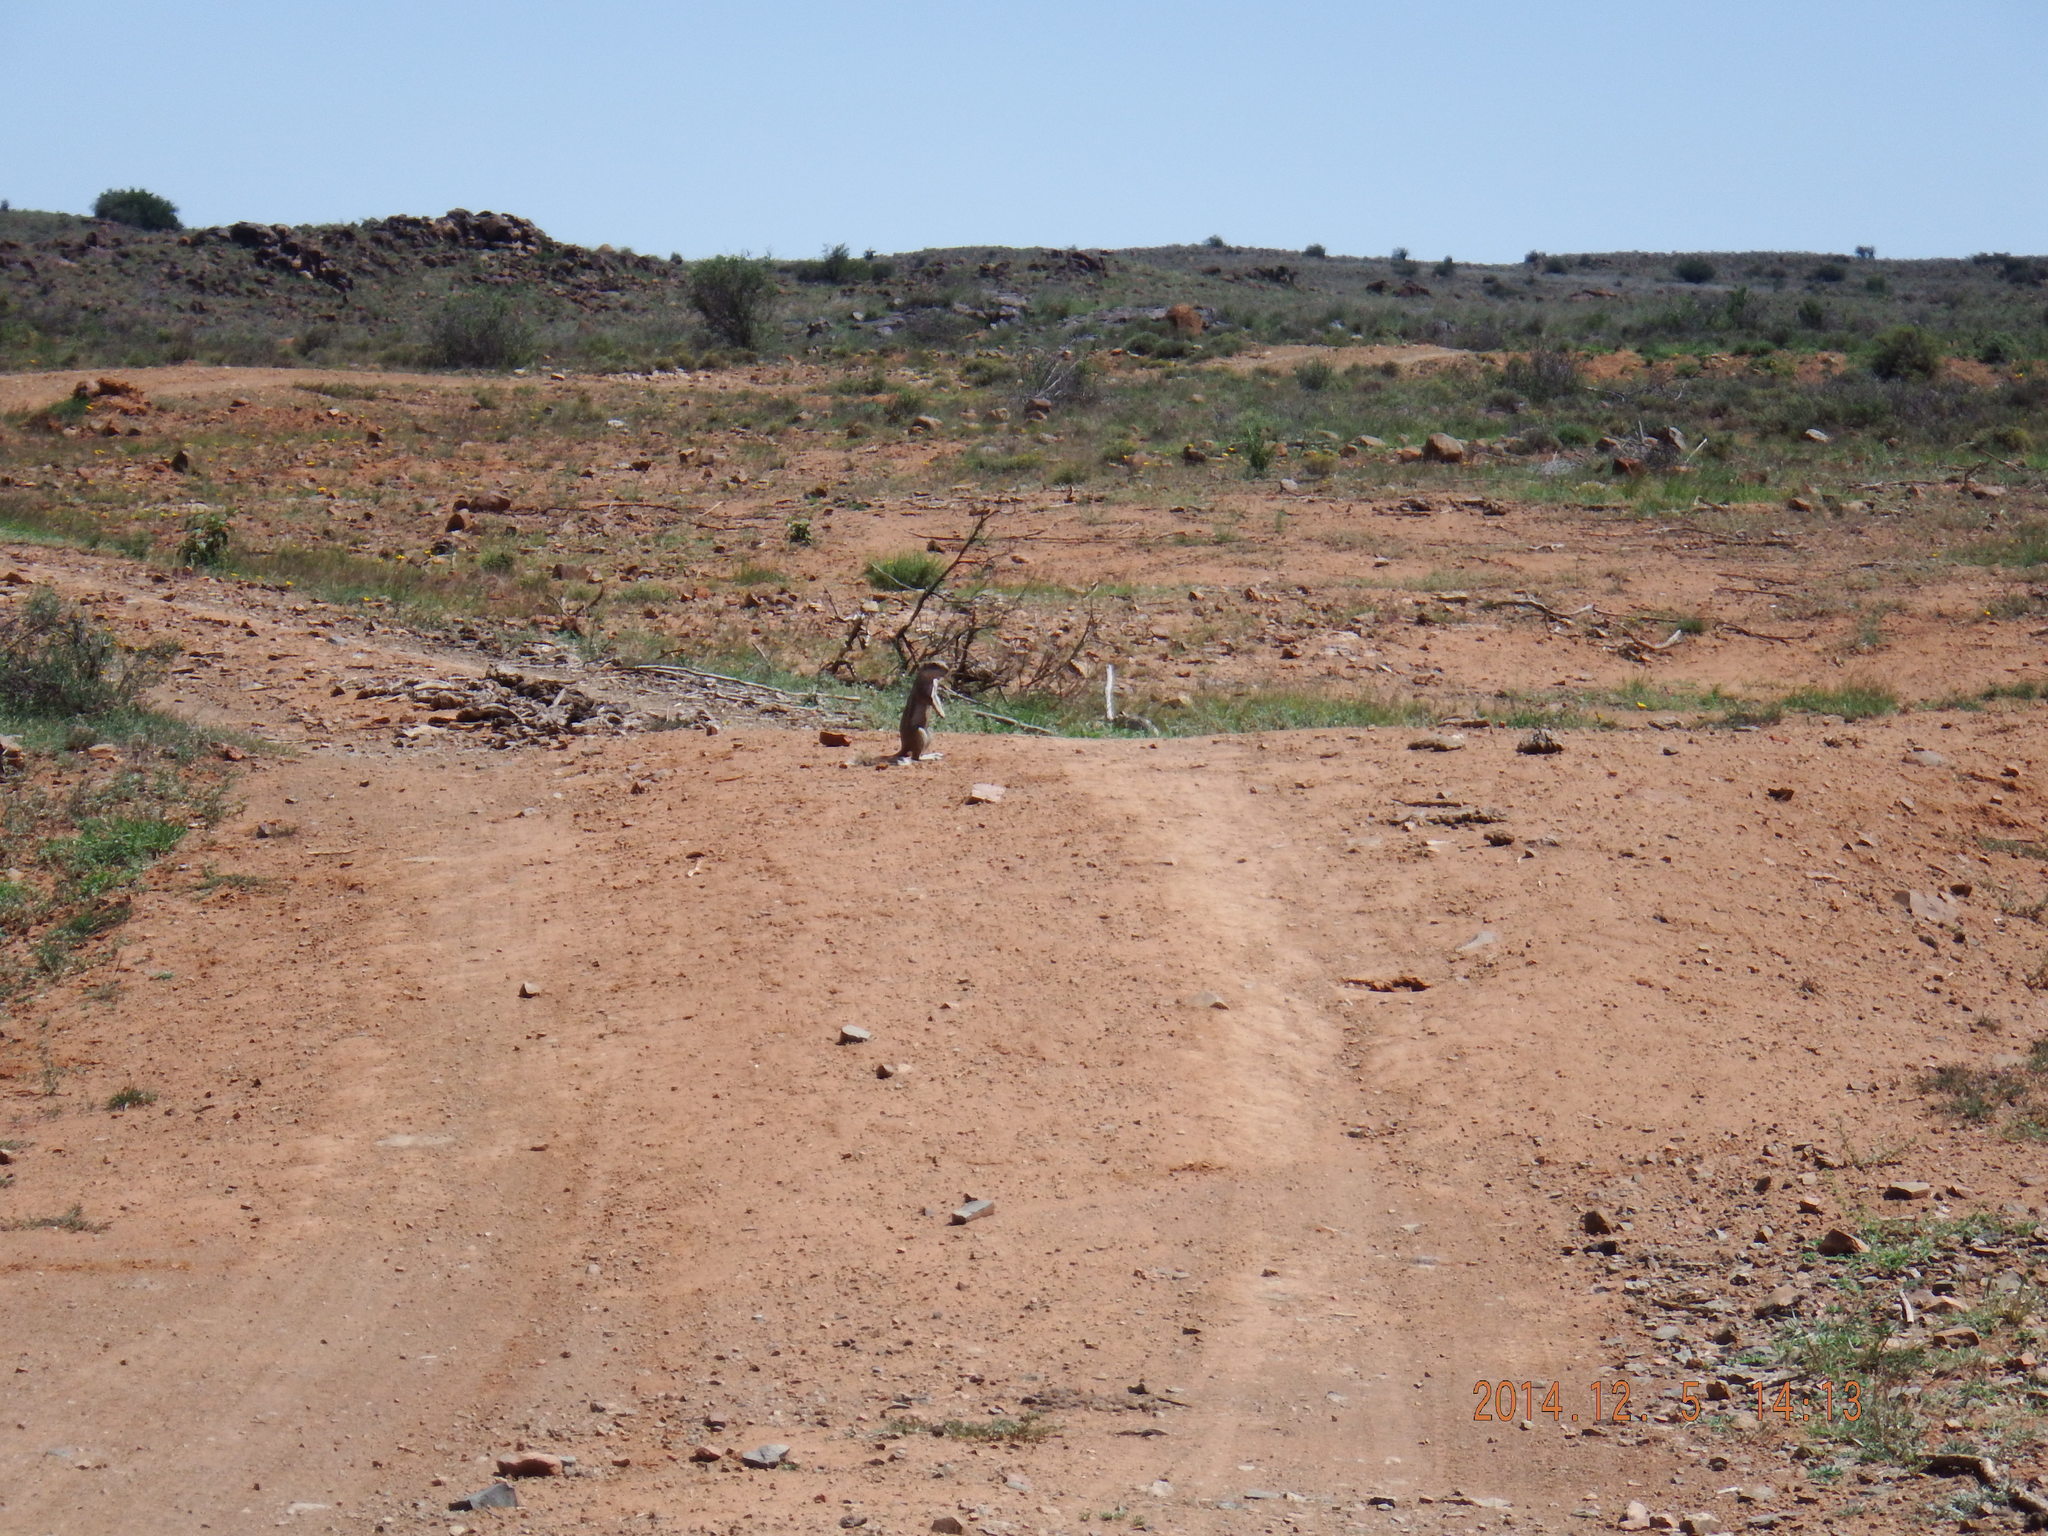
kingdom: Animalia
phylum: Chordata
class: Mammalia
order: Rodentia
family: Sciuridae
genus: Xerus
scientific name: Xerus inauris
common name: South african ground squirrel
